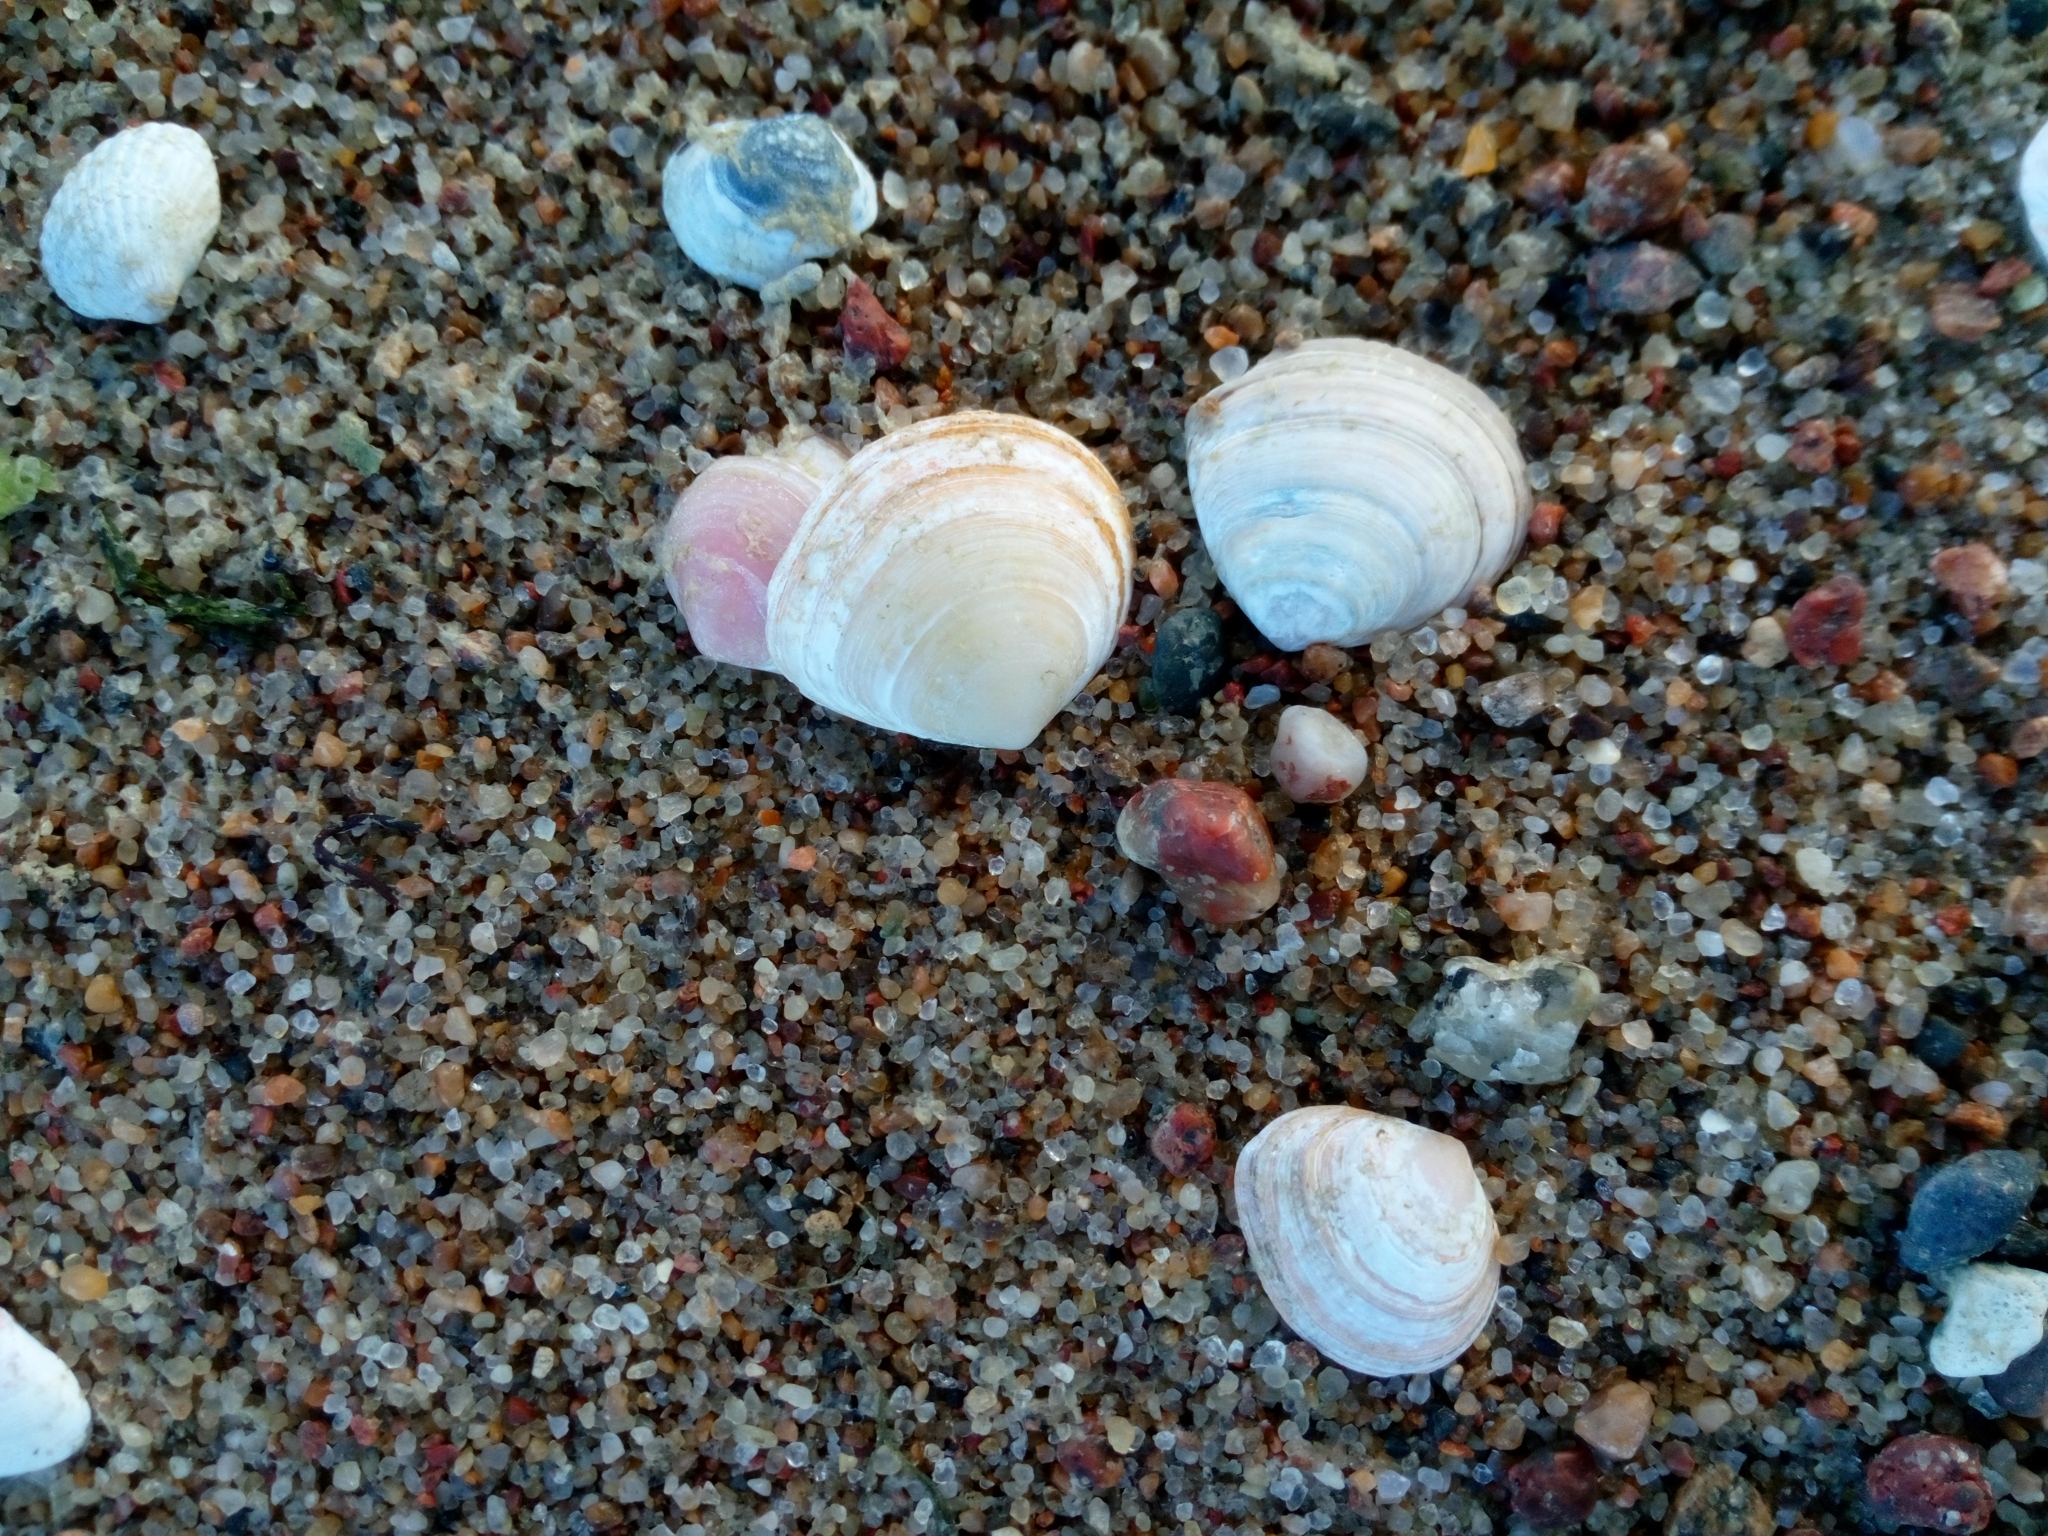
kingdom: Animalia
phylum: Mollusca
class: Bivalvia
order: Cardiida
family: Tellinidae
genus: Macoma
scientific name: Macoma balthica
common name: Baltic tellin
